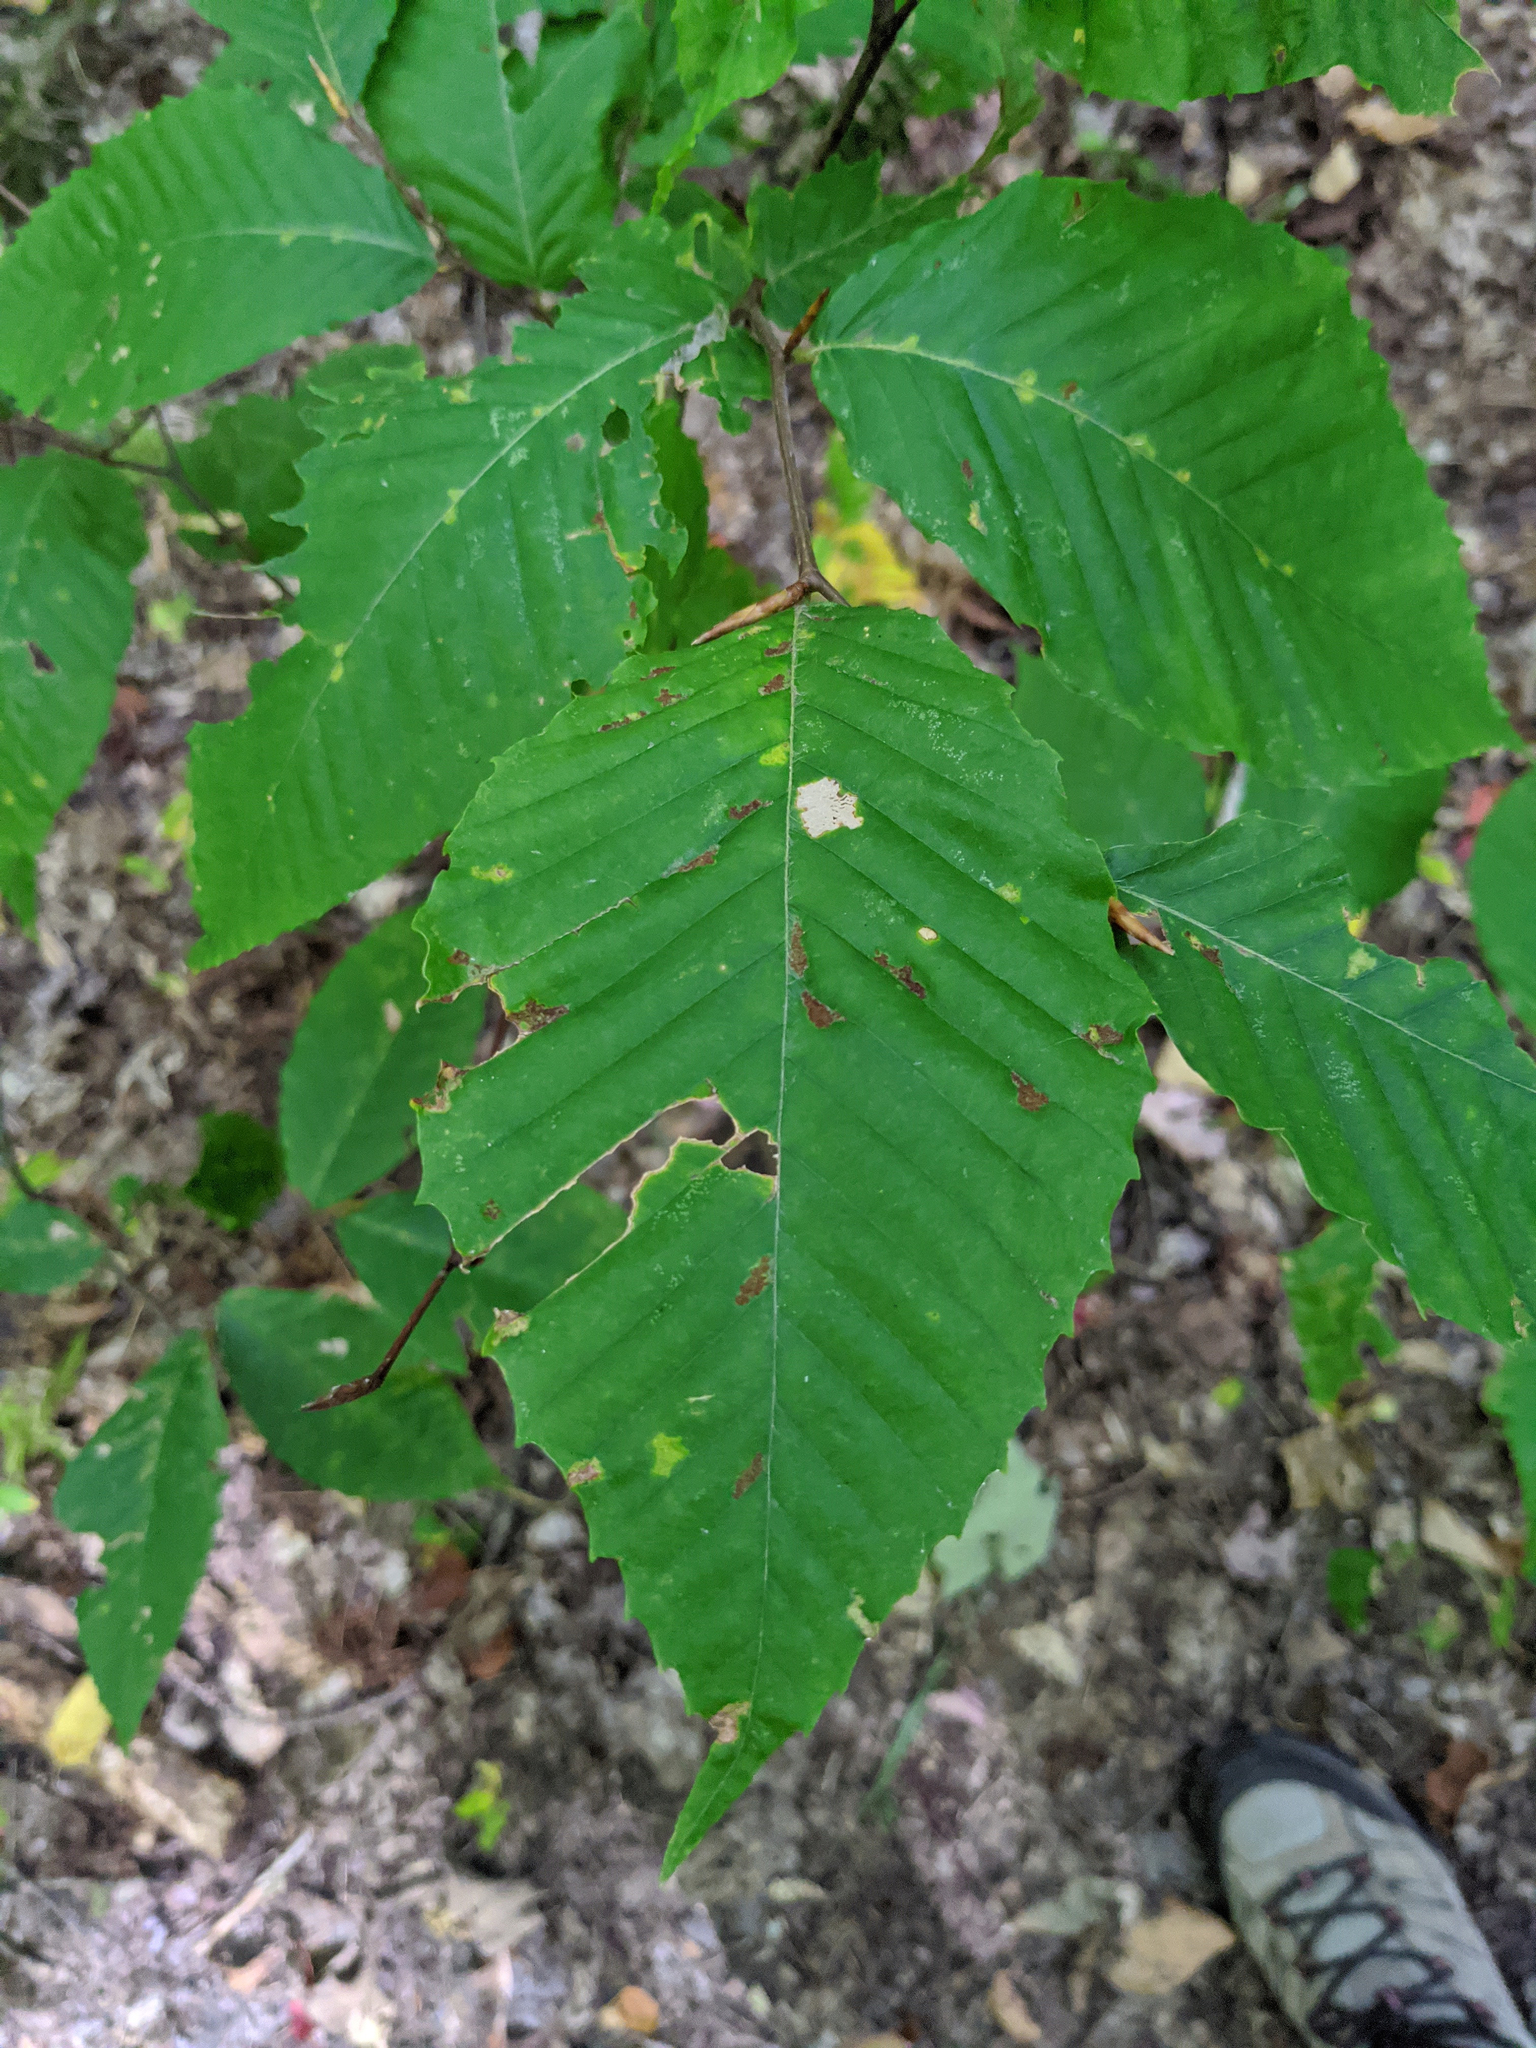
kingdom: Plantae
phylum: Tracheophyta
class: Magnoliopsida
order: Fagales
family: Fagaceae
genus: Fagus
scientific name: Fagus grandifolia
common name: American beech
